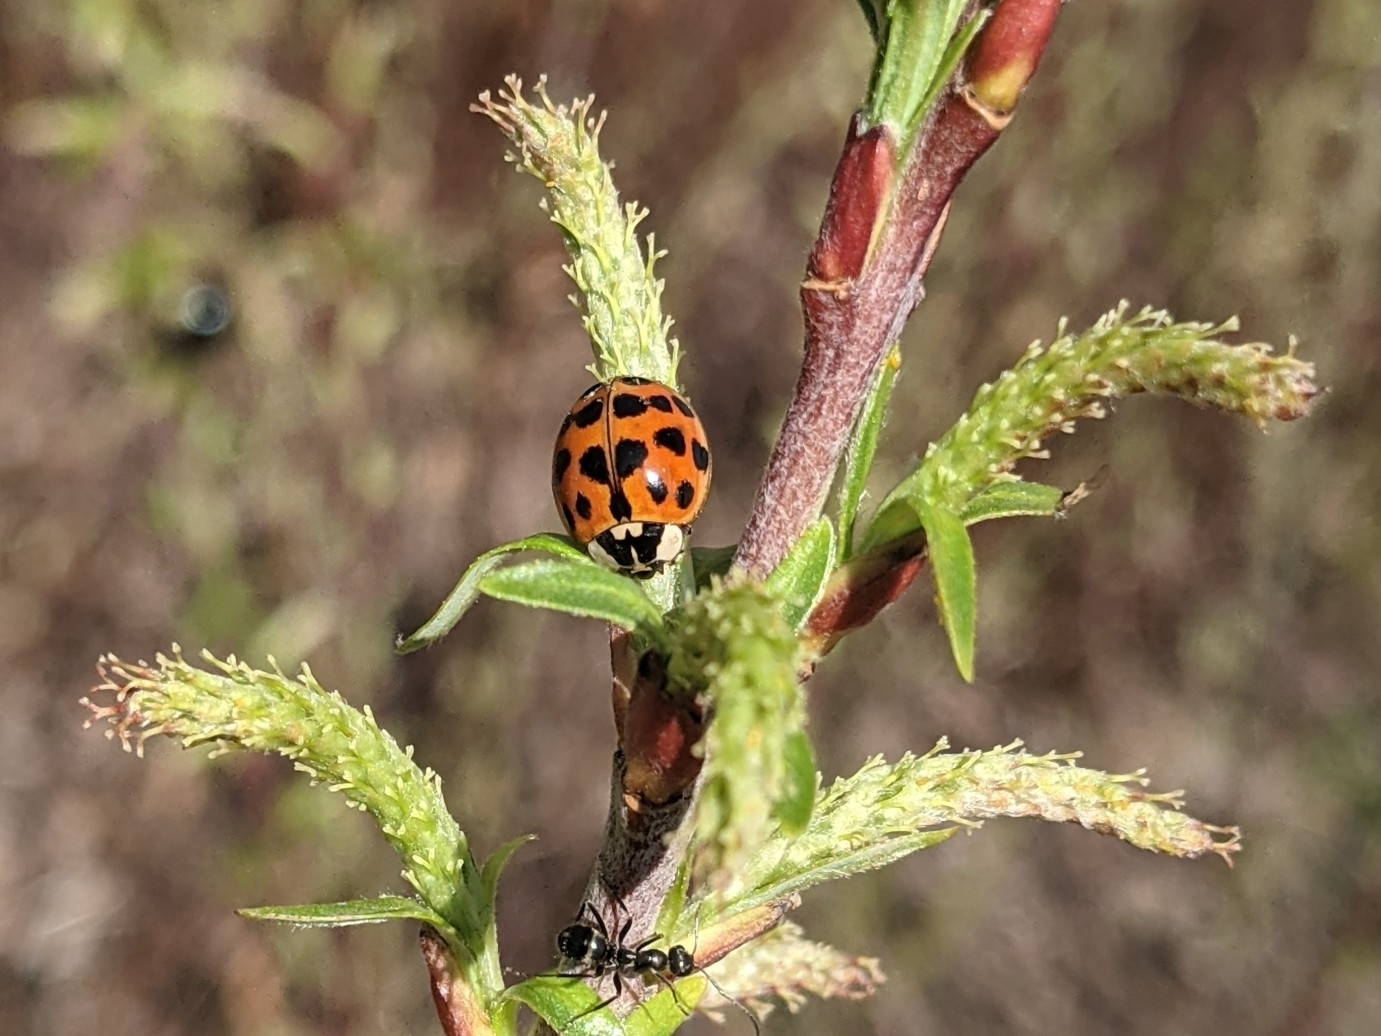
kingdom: Animalia
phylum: Arthropoda
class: Insecta
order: Coleoptera
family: Coccinellidae
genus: Harmonia
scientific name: Harmonia axyridis
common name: Harlequin ladybird
